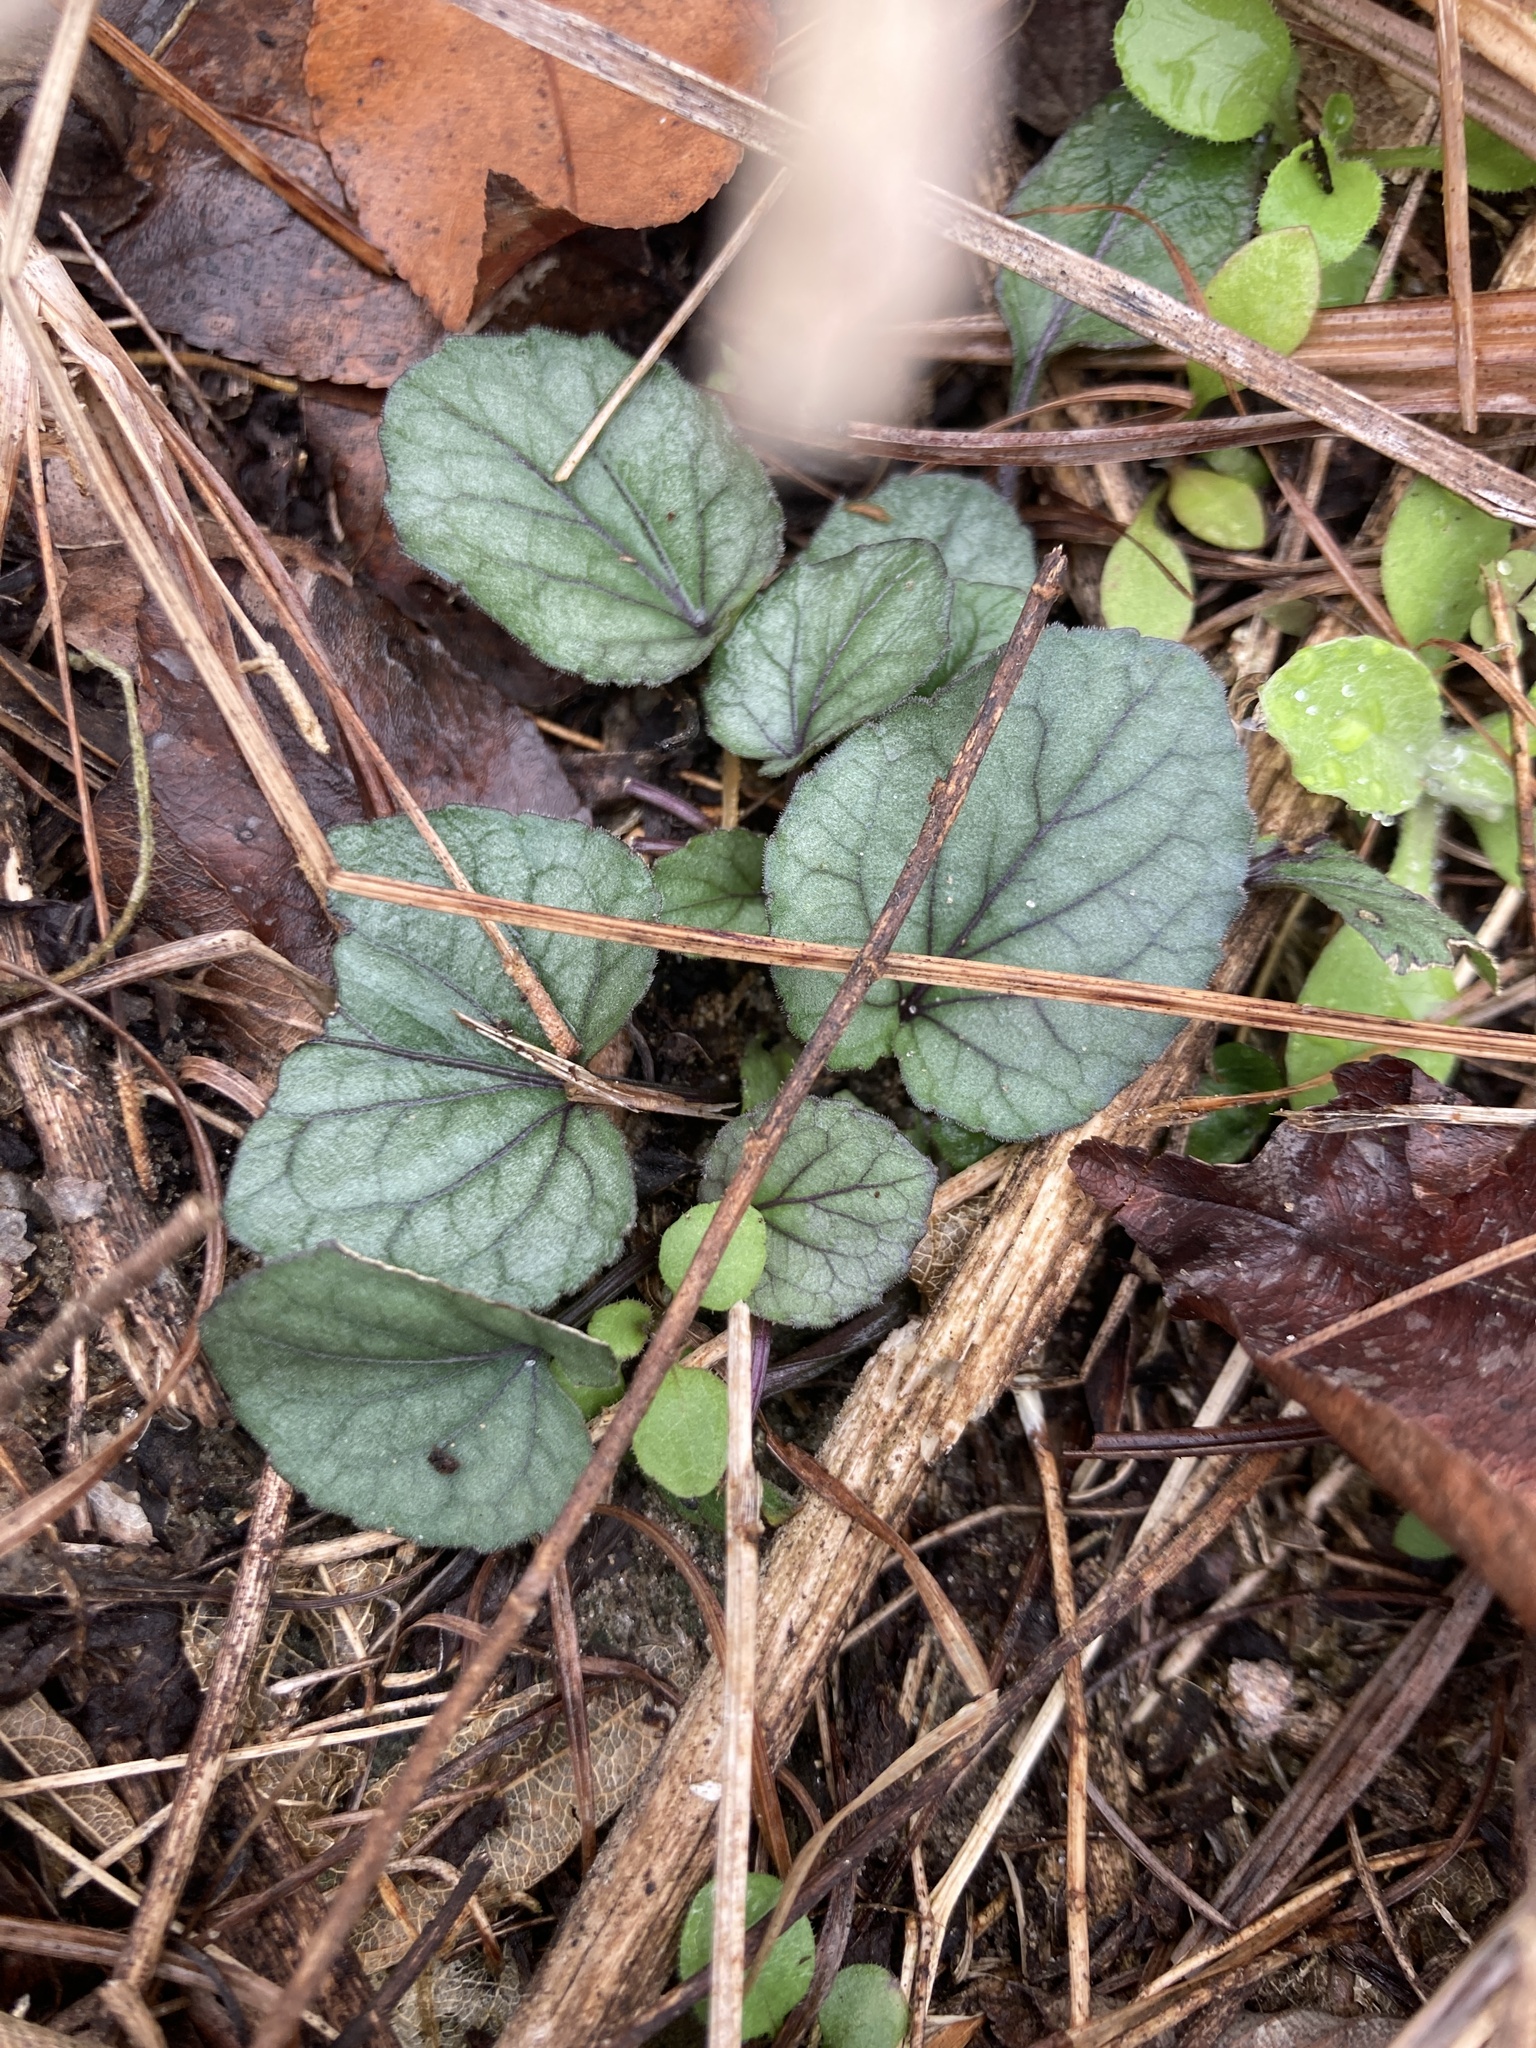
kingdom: Plantae
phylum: Tracheophyta
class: Magnoliopsida
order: Malpighiales
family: Violaceae
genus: Viola
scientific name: Viola walteri
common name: Prostrate southern violet
